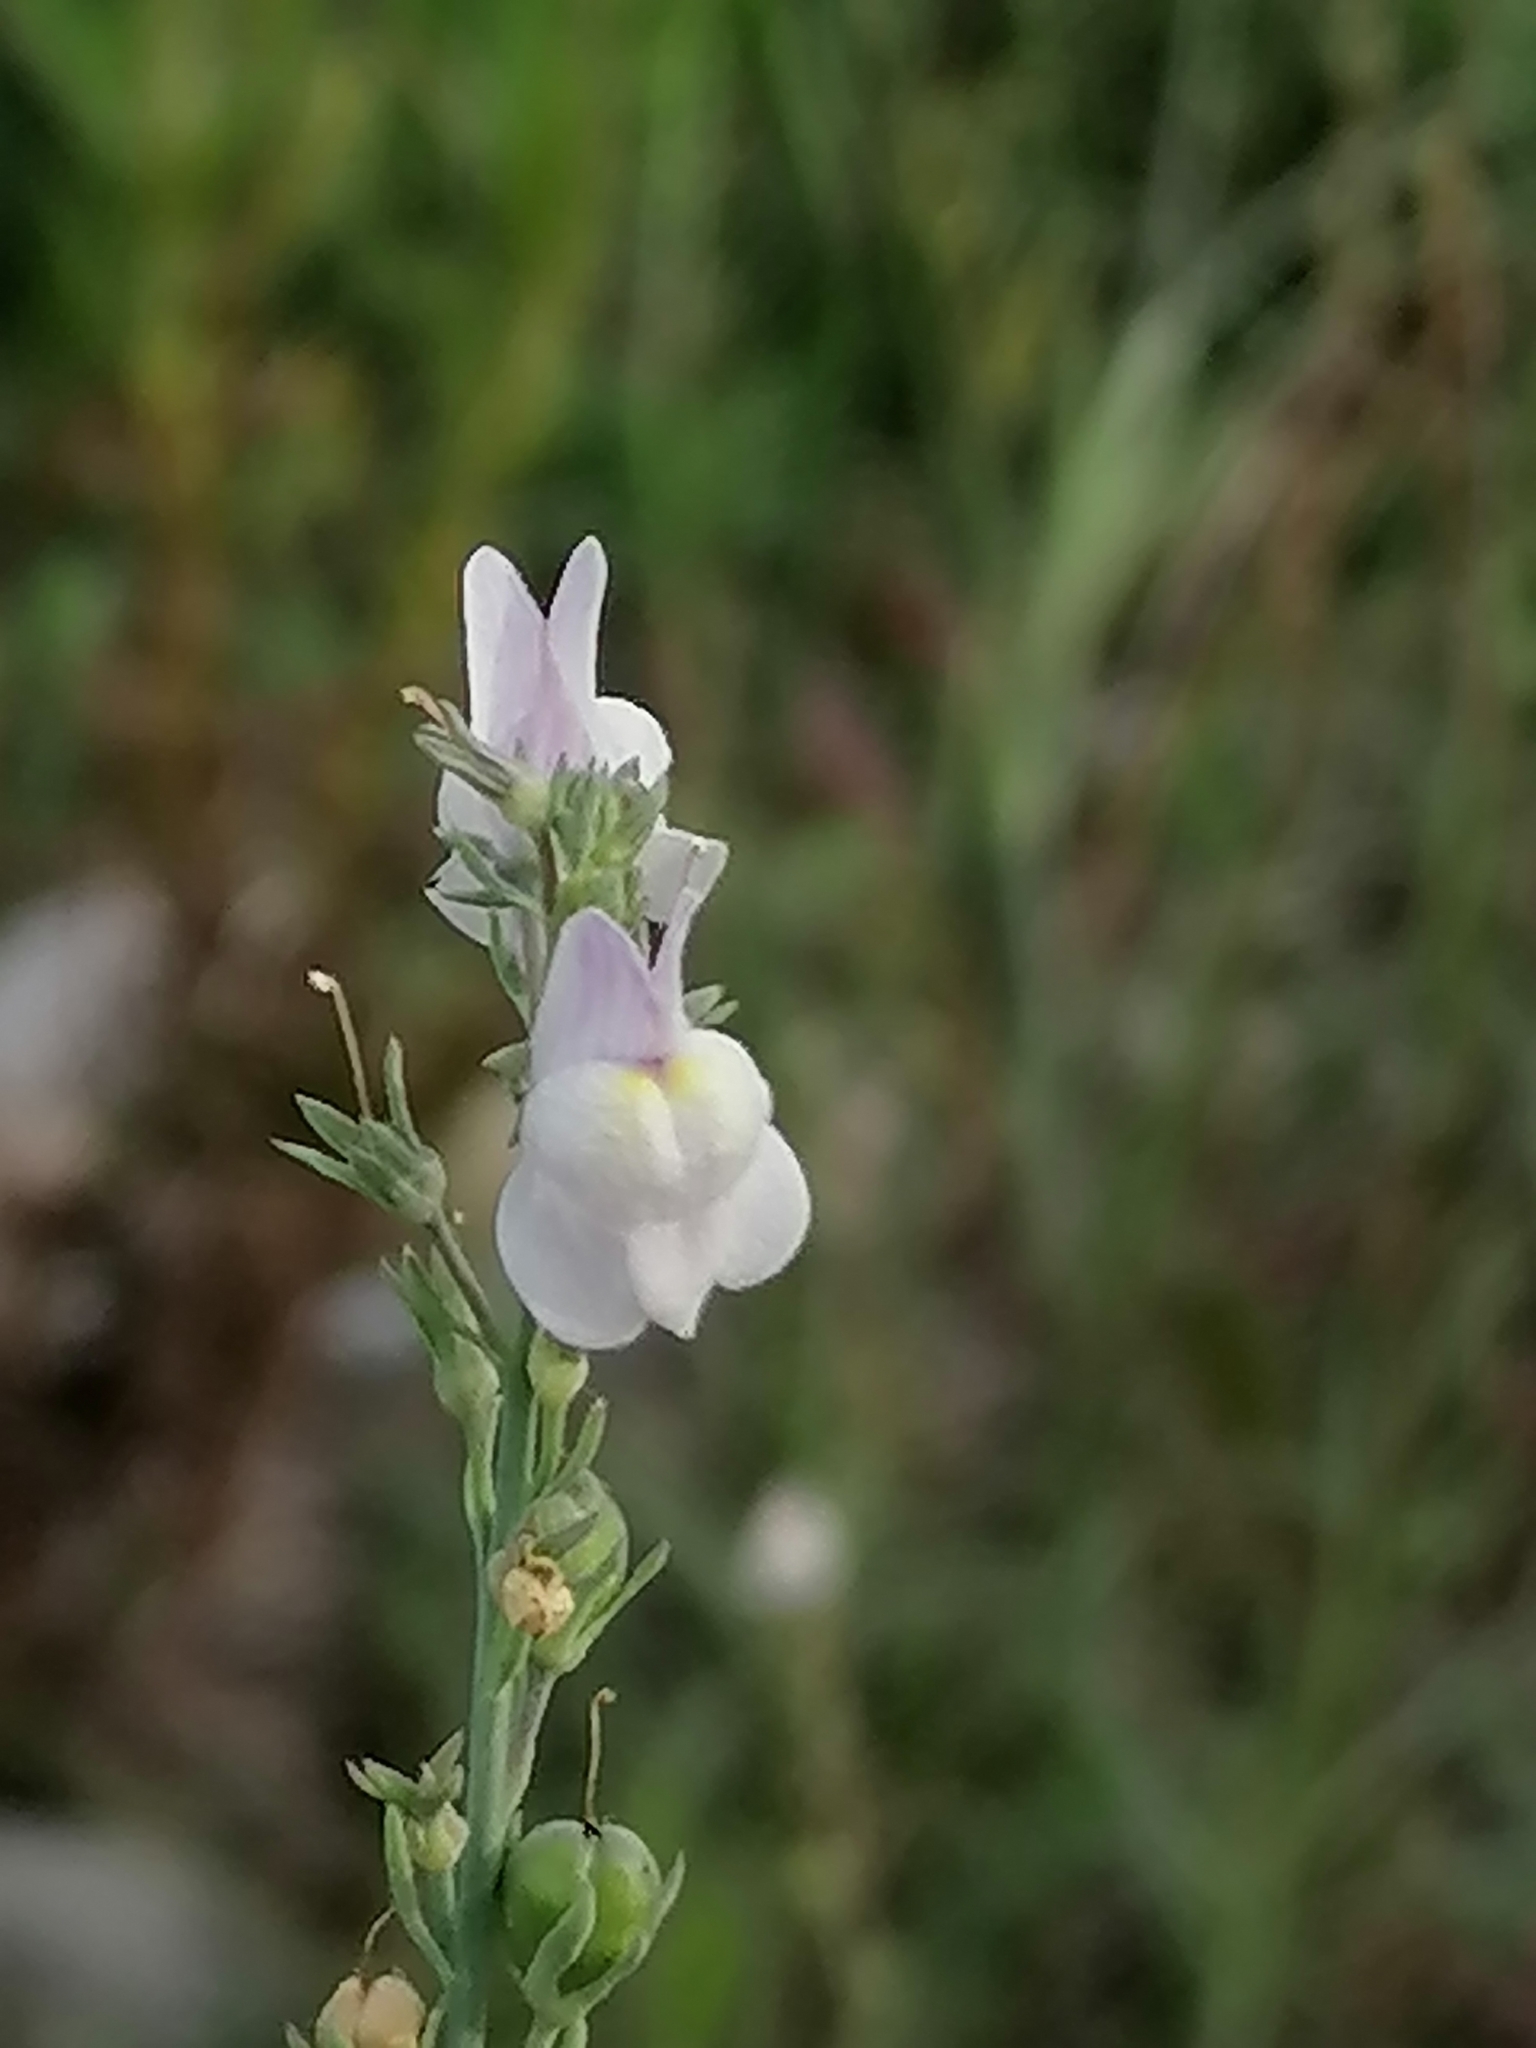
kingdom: Plantae
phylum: Tracheophyta
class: Magnoliopsida
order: Lamiales
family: Plantaginaceae
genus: Linaria
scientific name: Linaria repens
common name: Pale toadflax
